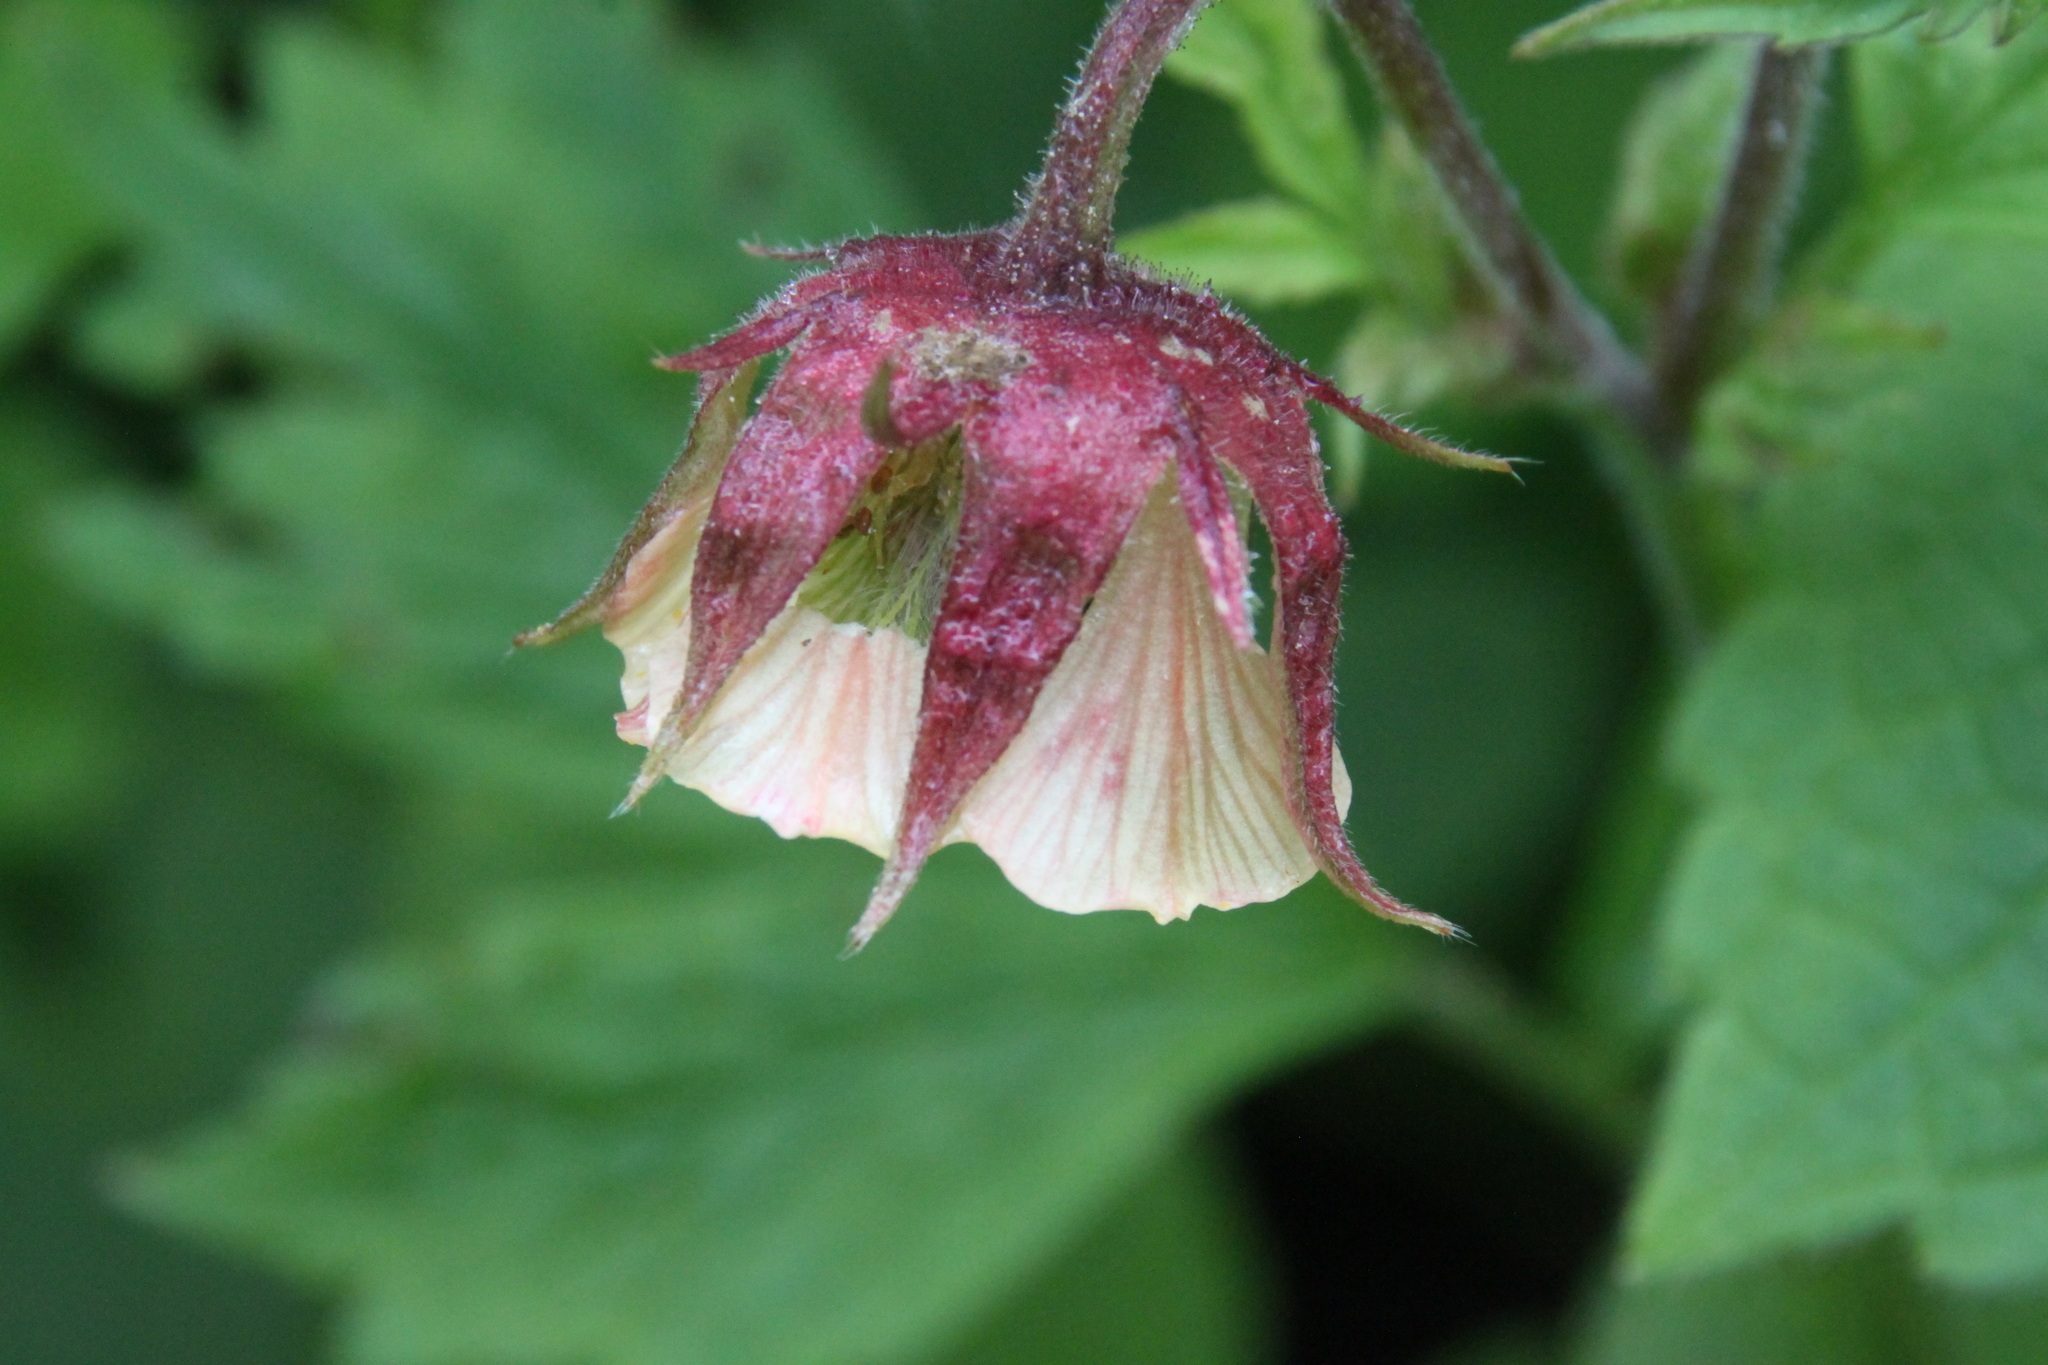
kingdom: Plantae
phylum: Tracheophyta
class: Magnoliopsida
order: Rosales
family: Rosaceae
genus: Geum
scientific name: Geum rivale
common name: Water avens
